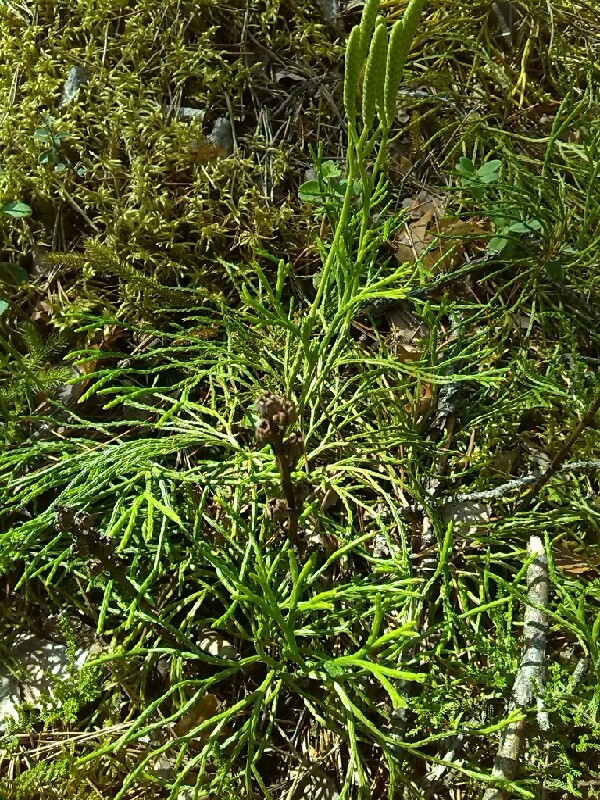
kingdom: Plantae
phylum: Tracheophyta
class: Lycopodiopsida
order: Lycopodiales
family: Lycopodiaceae
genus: Diphasiastrum
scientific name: Diphasiastrum zeilleri
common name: Zeiller's clubmoss
